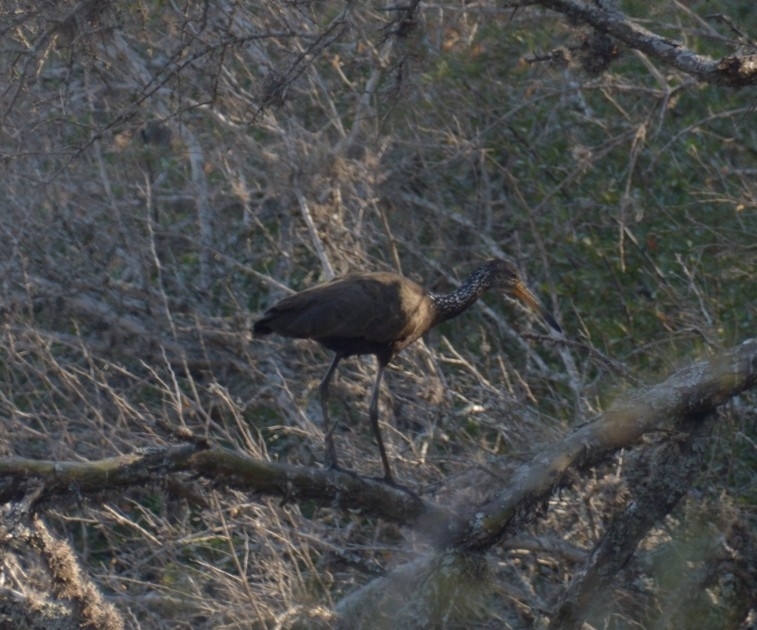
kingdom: Animalia
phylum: Chordata
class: Aves
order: Gruiformes
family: Aramidae
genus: Aramus
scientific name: Aramus guarauna
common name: Limpkin
